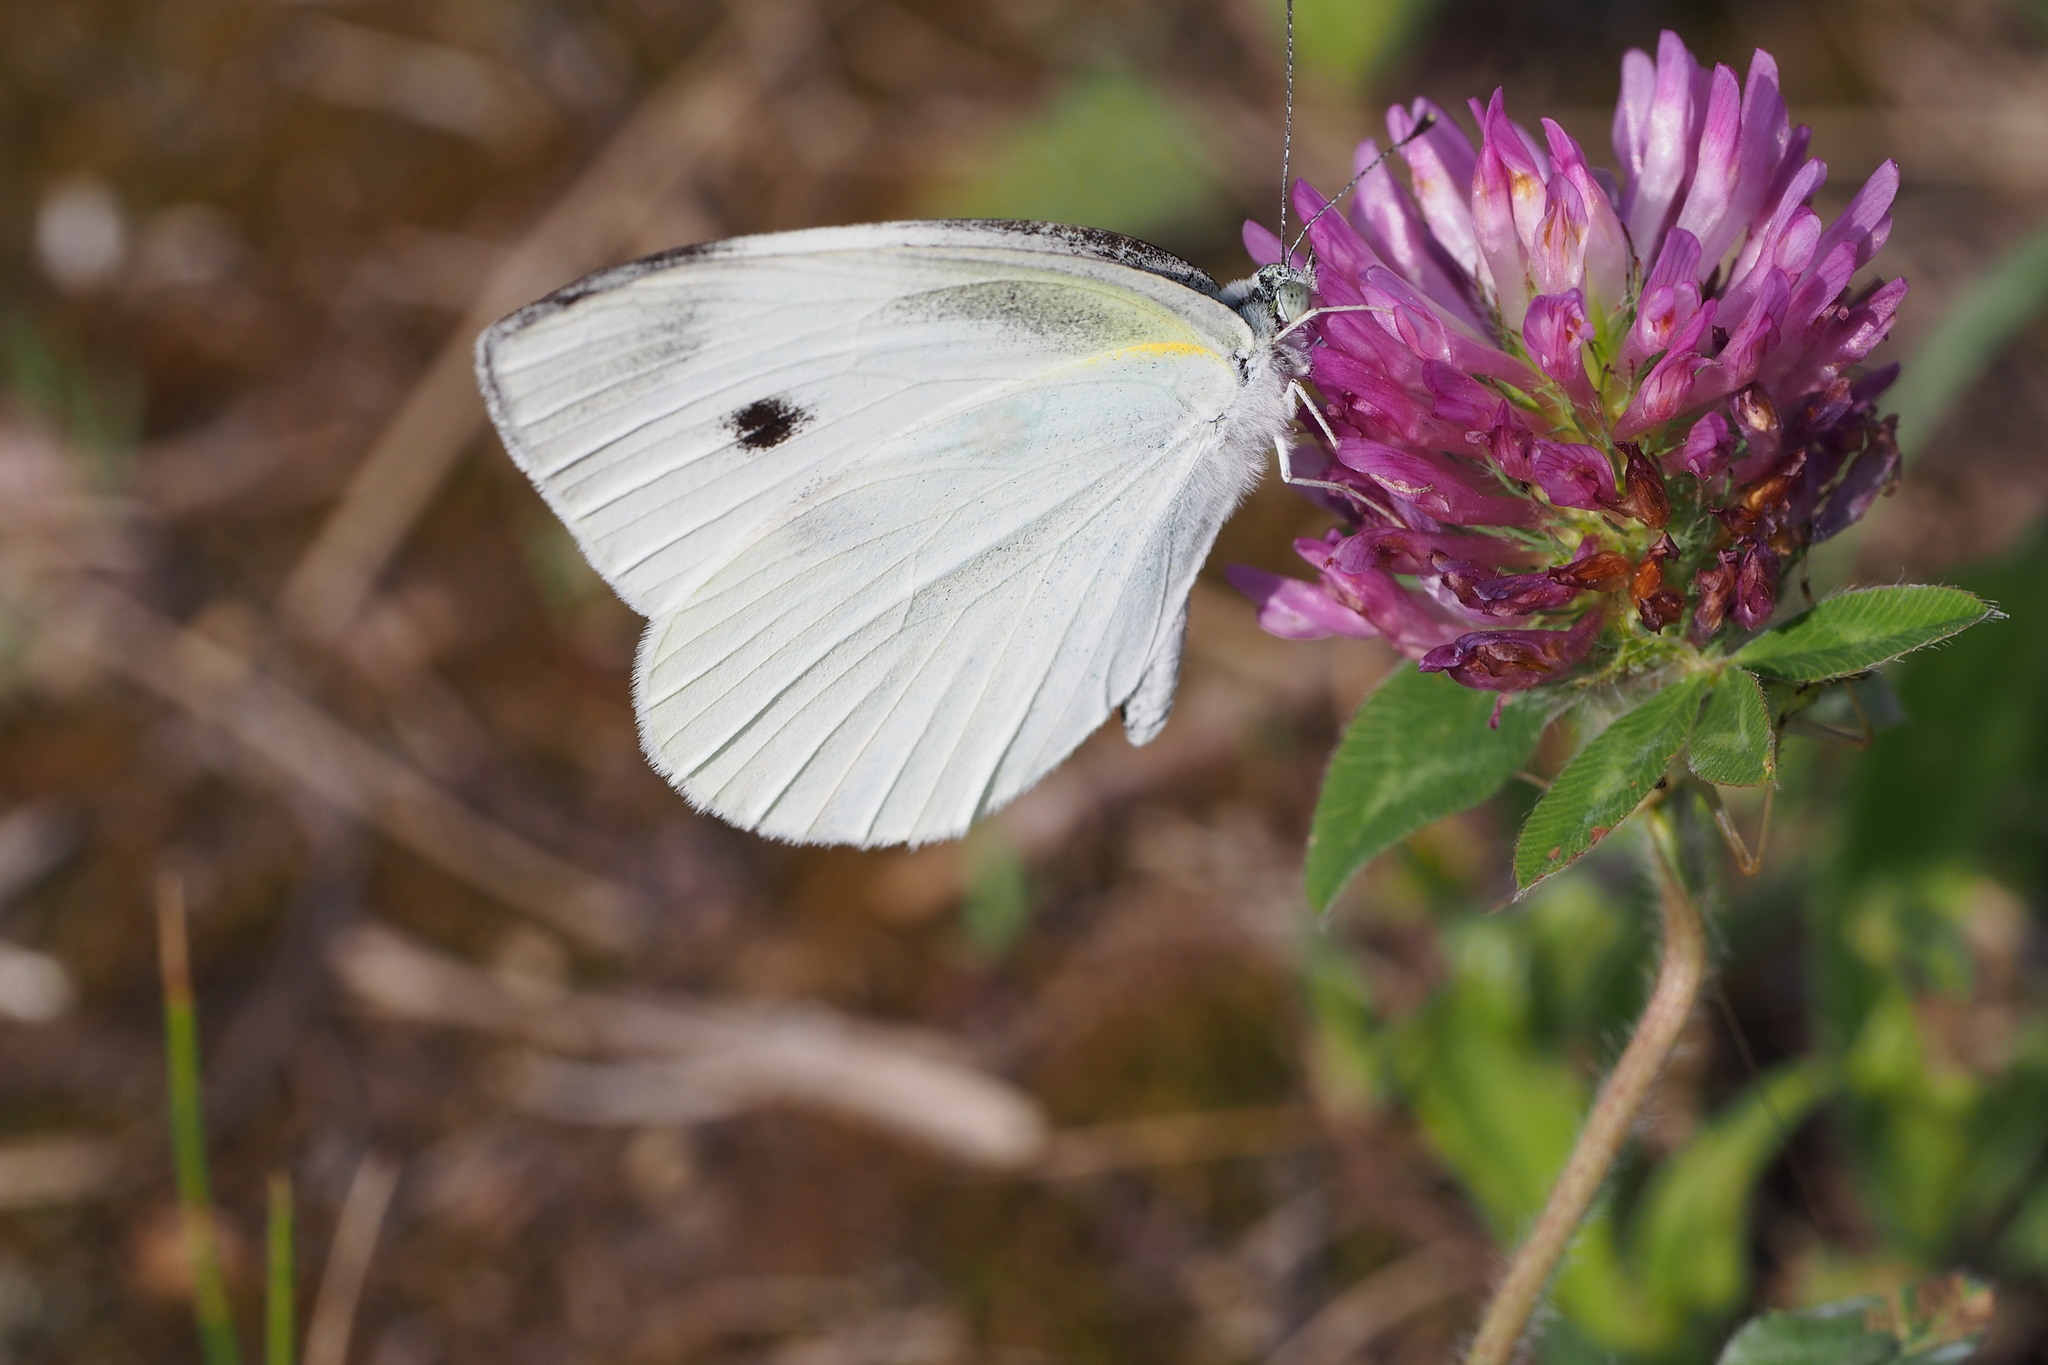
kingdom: Animalia
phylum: Arthropoda
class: Insecta
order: Lepidoptera
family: Pieridae
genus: Pieris
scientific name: Pieris rapae
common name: Small white
